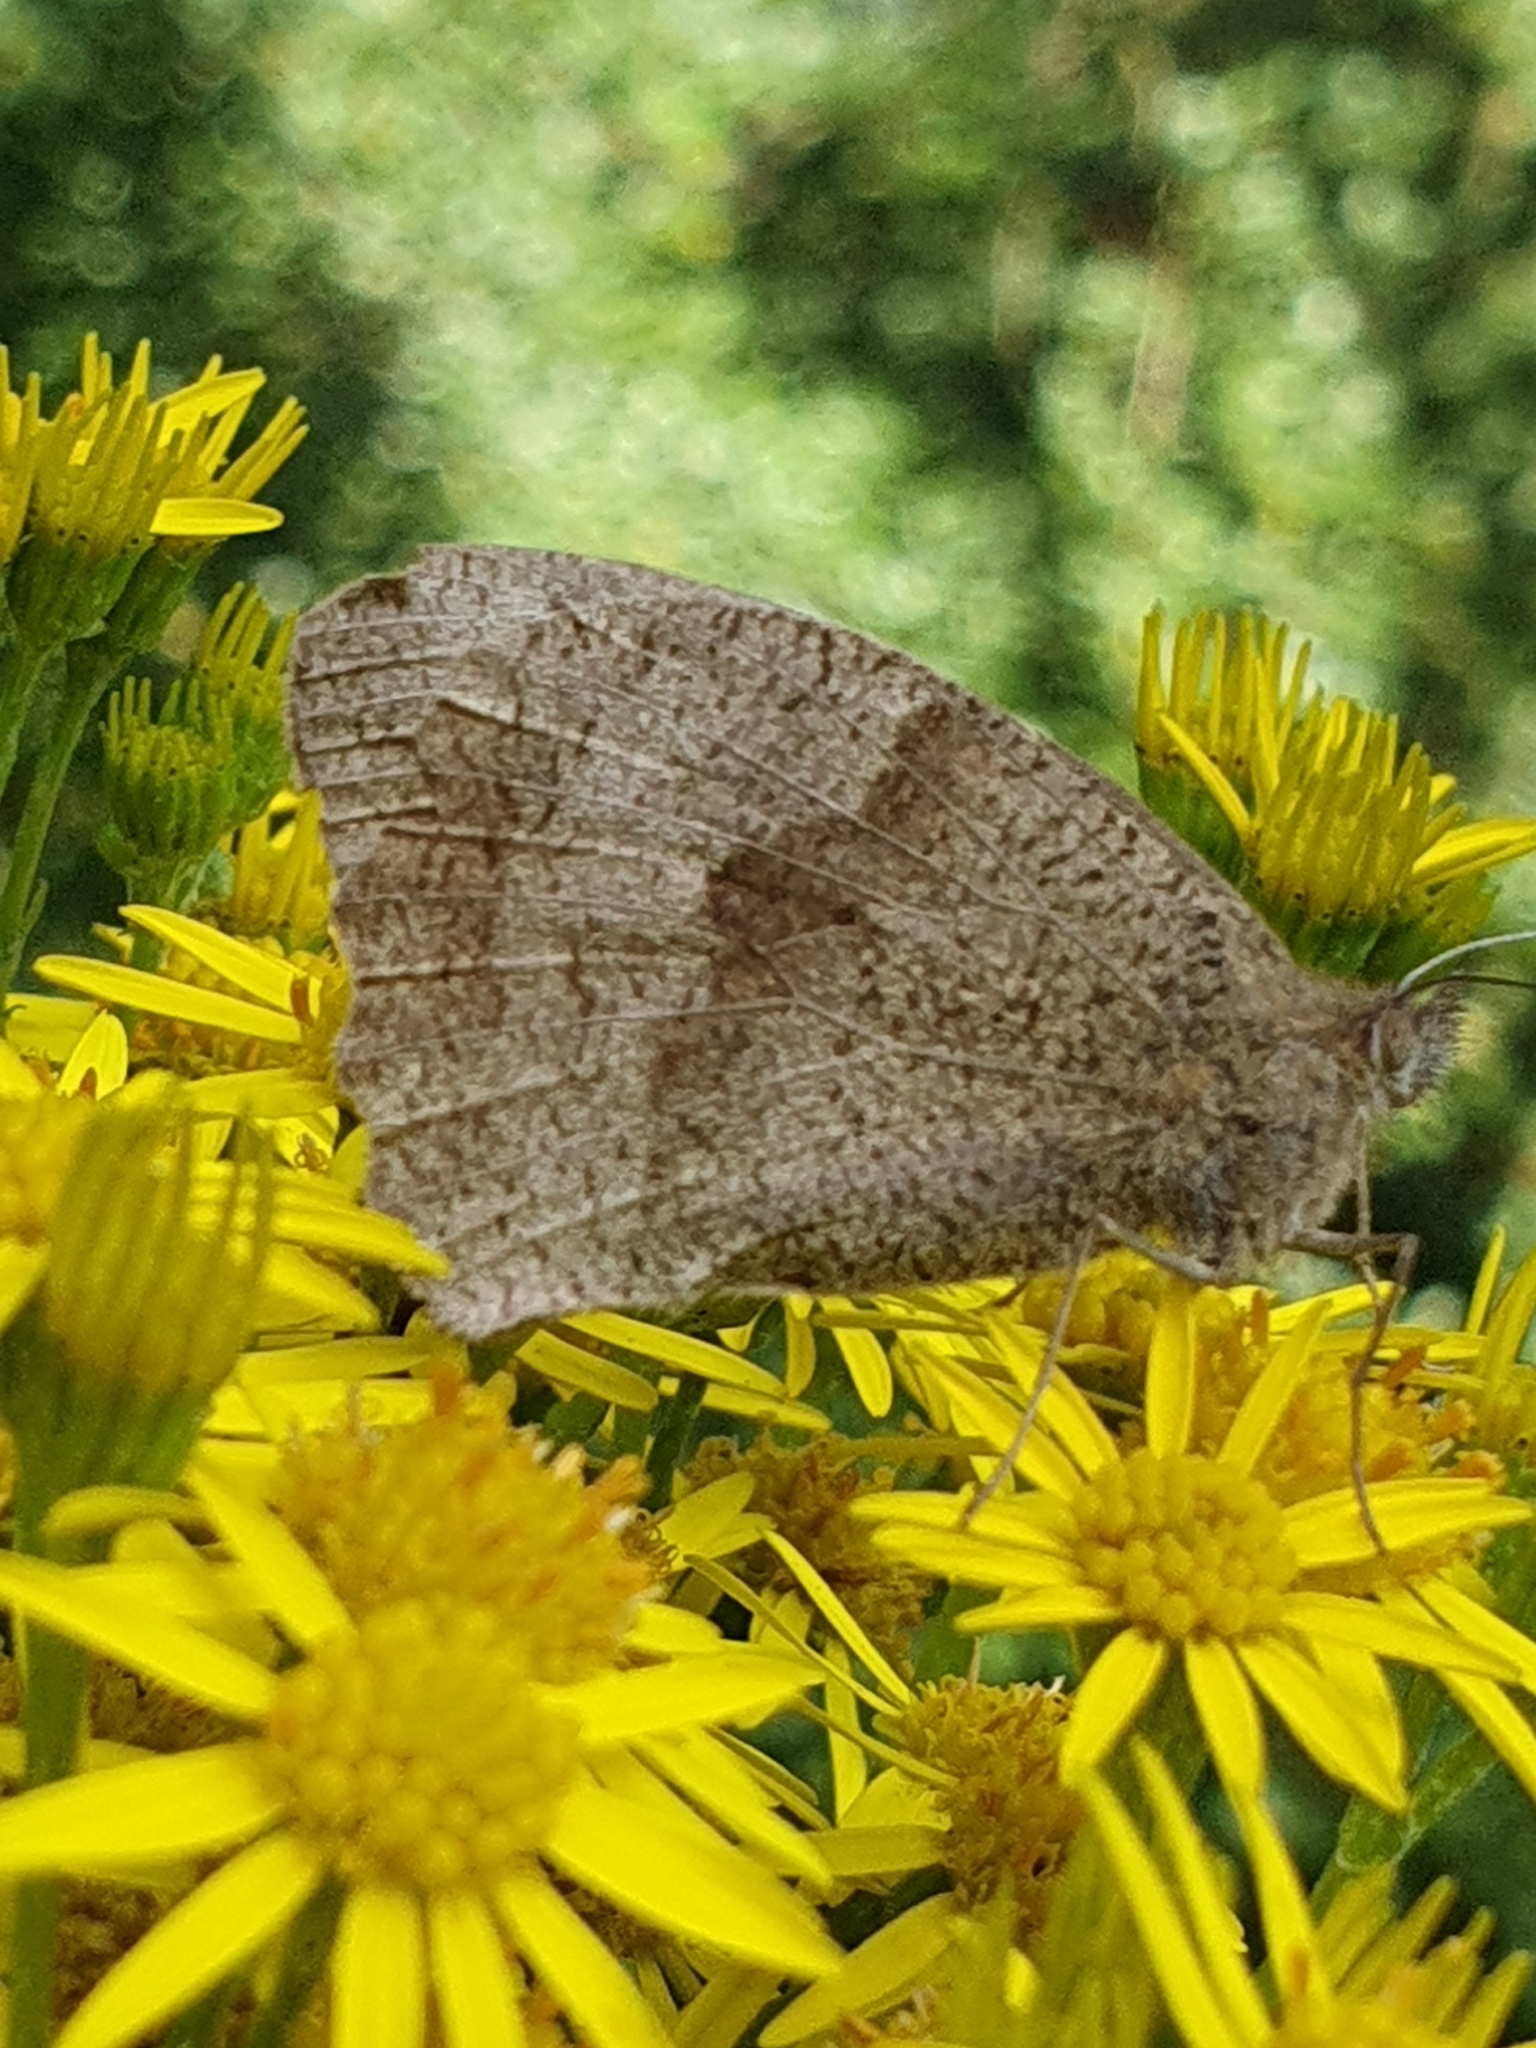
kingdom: Animalia
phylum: Arthropoda
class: Insecta
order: Lepidoptera
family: Nymphalidae
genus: Maniola
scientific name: Maniola jurtina
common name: Meadow brown
